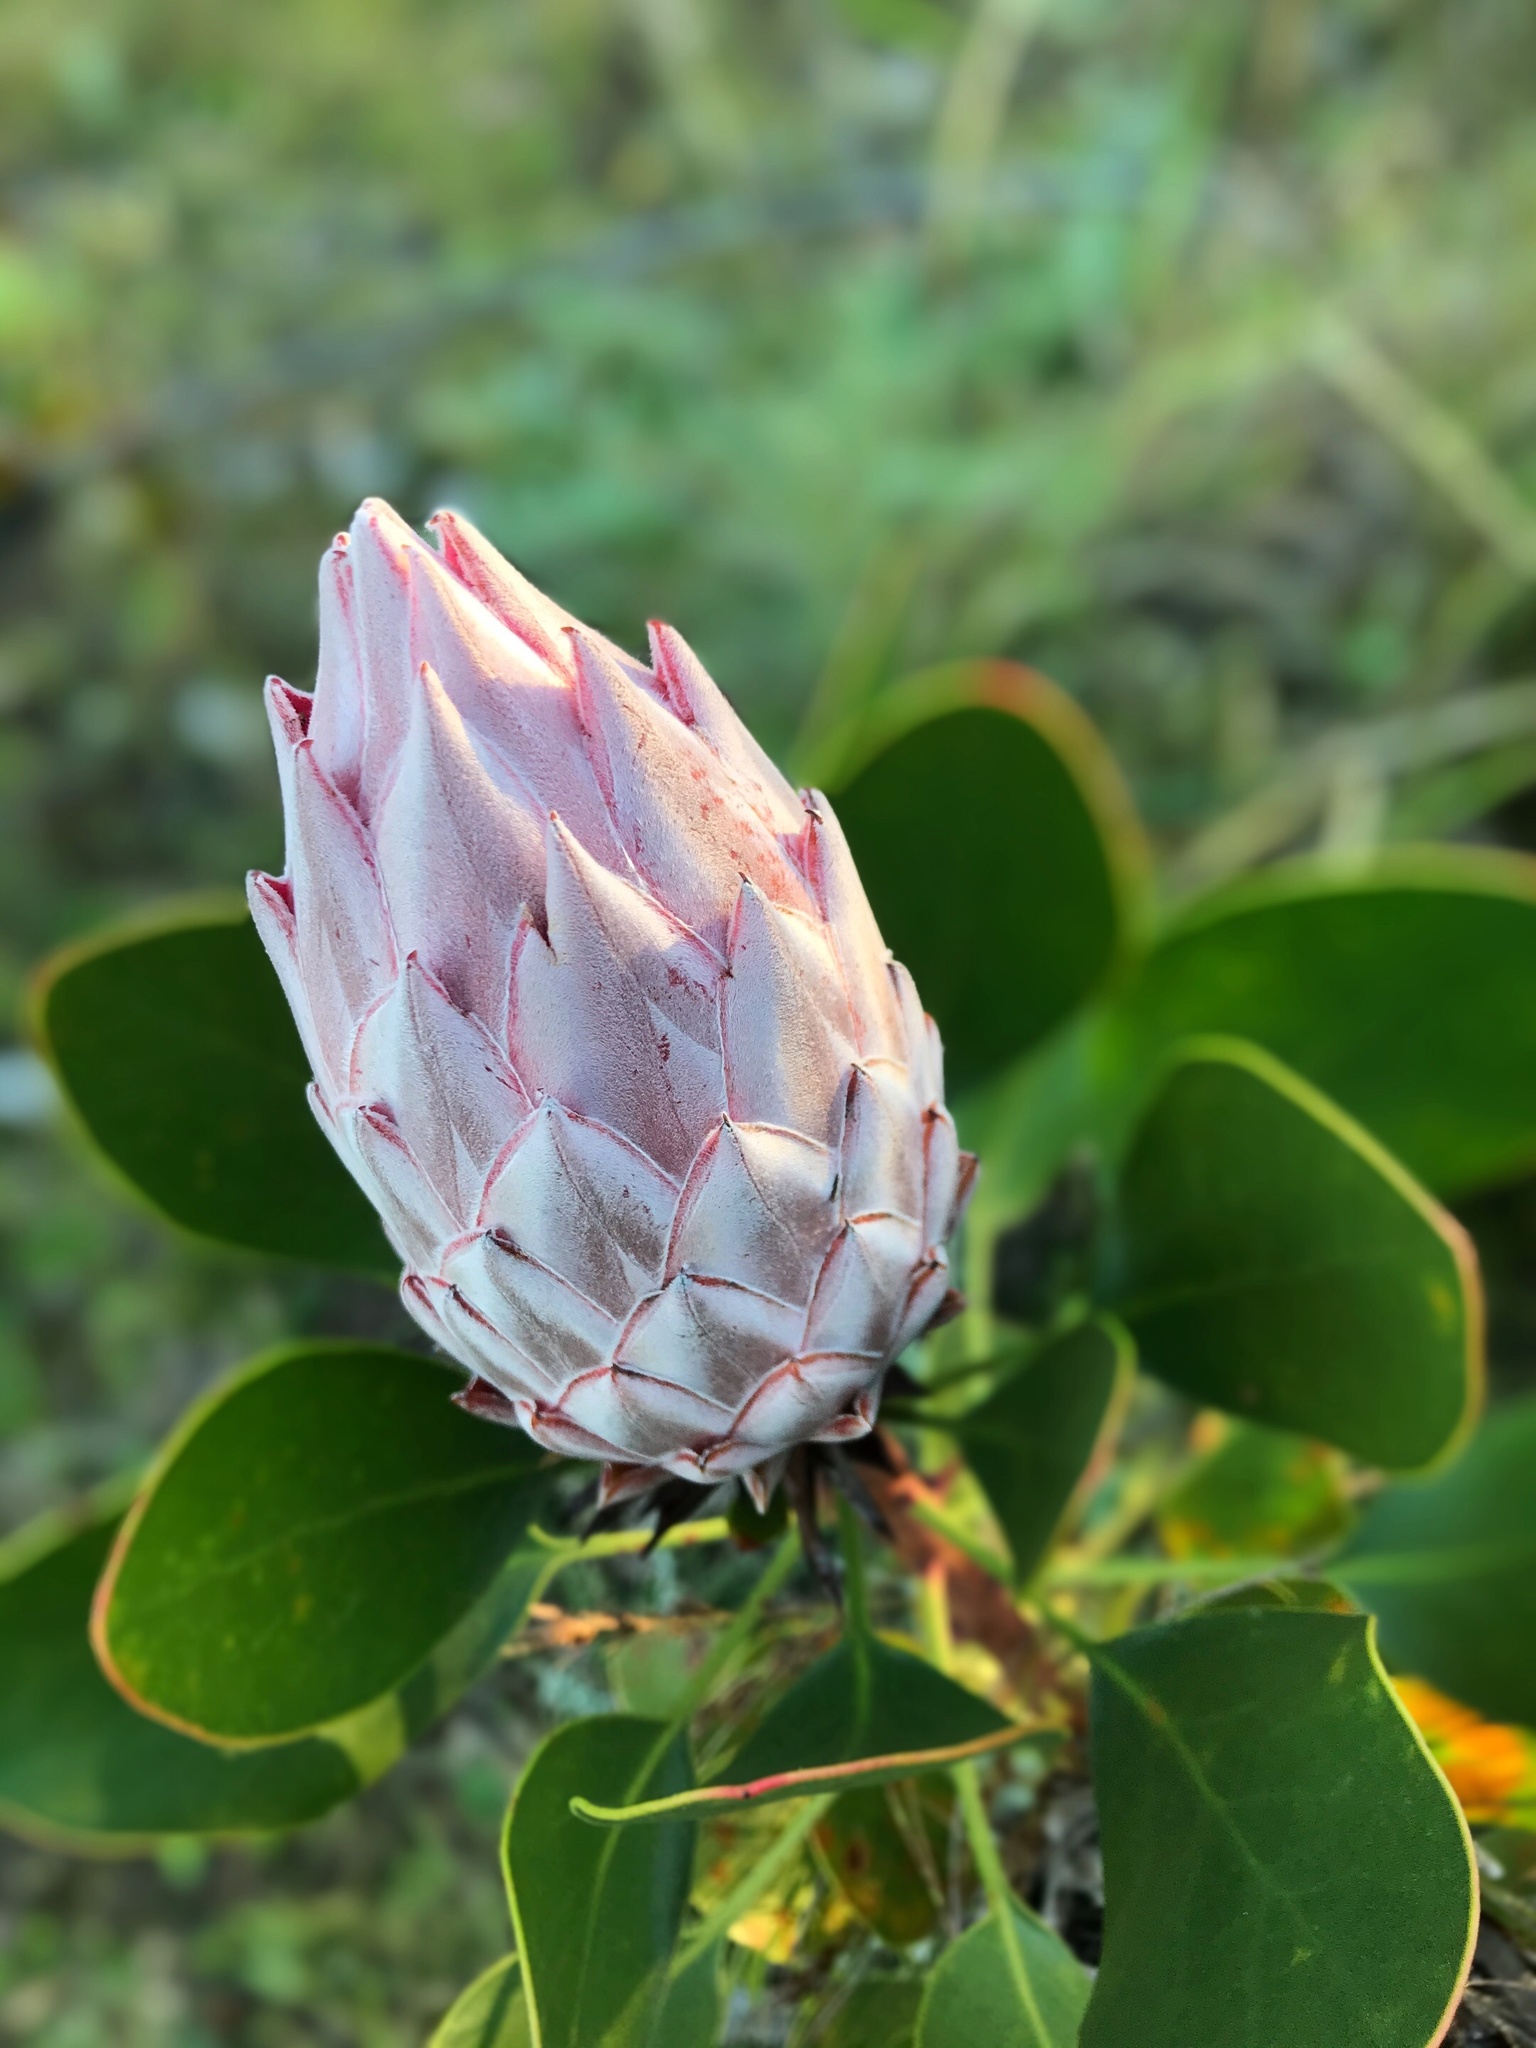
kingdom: Plantae
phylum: Tracheophyta
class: Magnoliopsida
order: Proteales
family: Proteaceae
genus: Protea
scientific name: Protea cynaroides
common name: King protea
